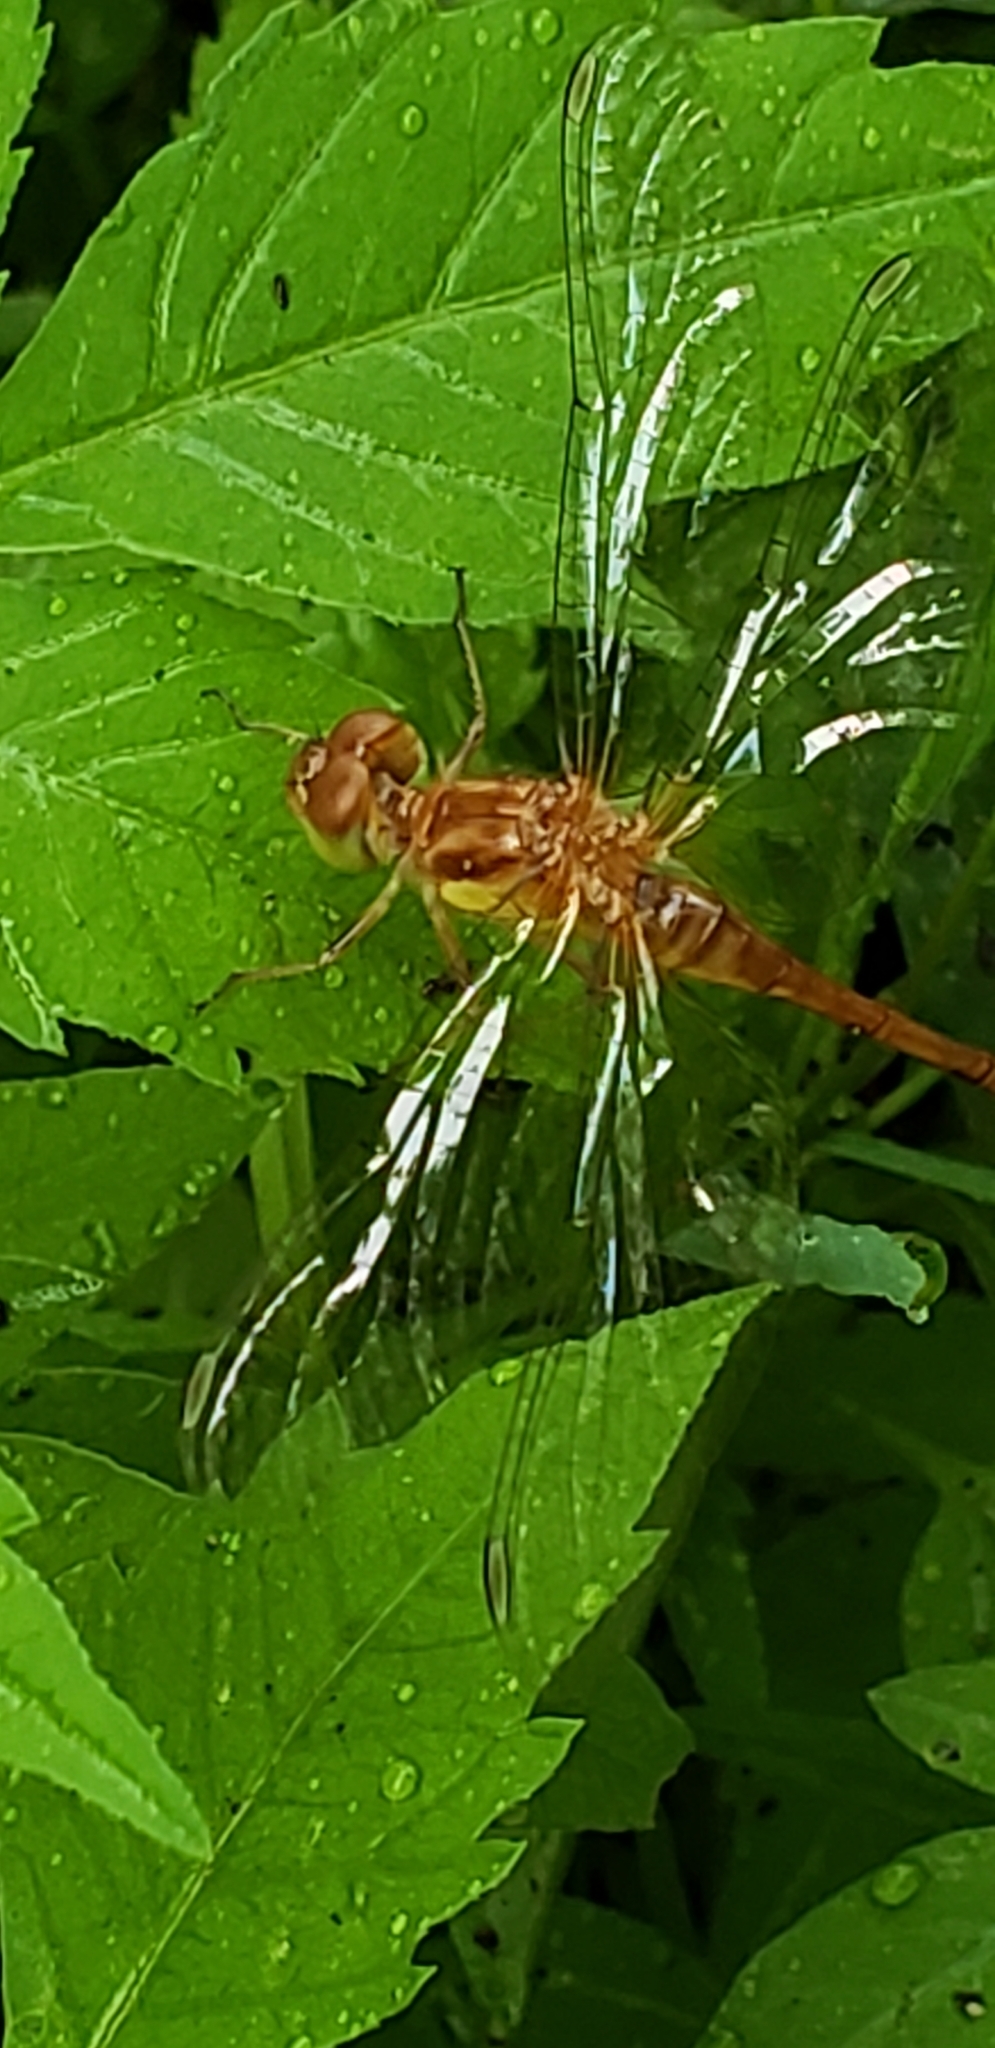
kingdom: Animalia
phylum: Arthropoda
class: Insecta
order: Odonata
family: Libellulidae
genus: Sympetrum
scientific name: Sympetrum vicinum
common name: Autumn meadowhawk
